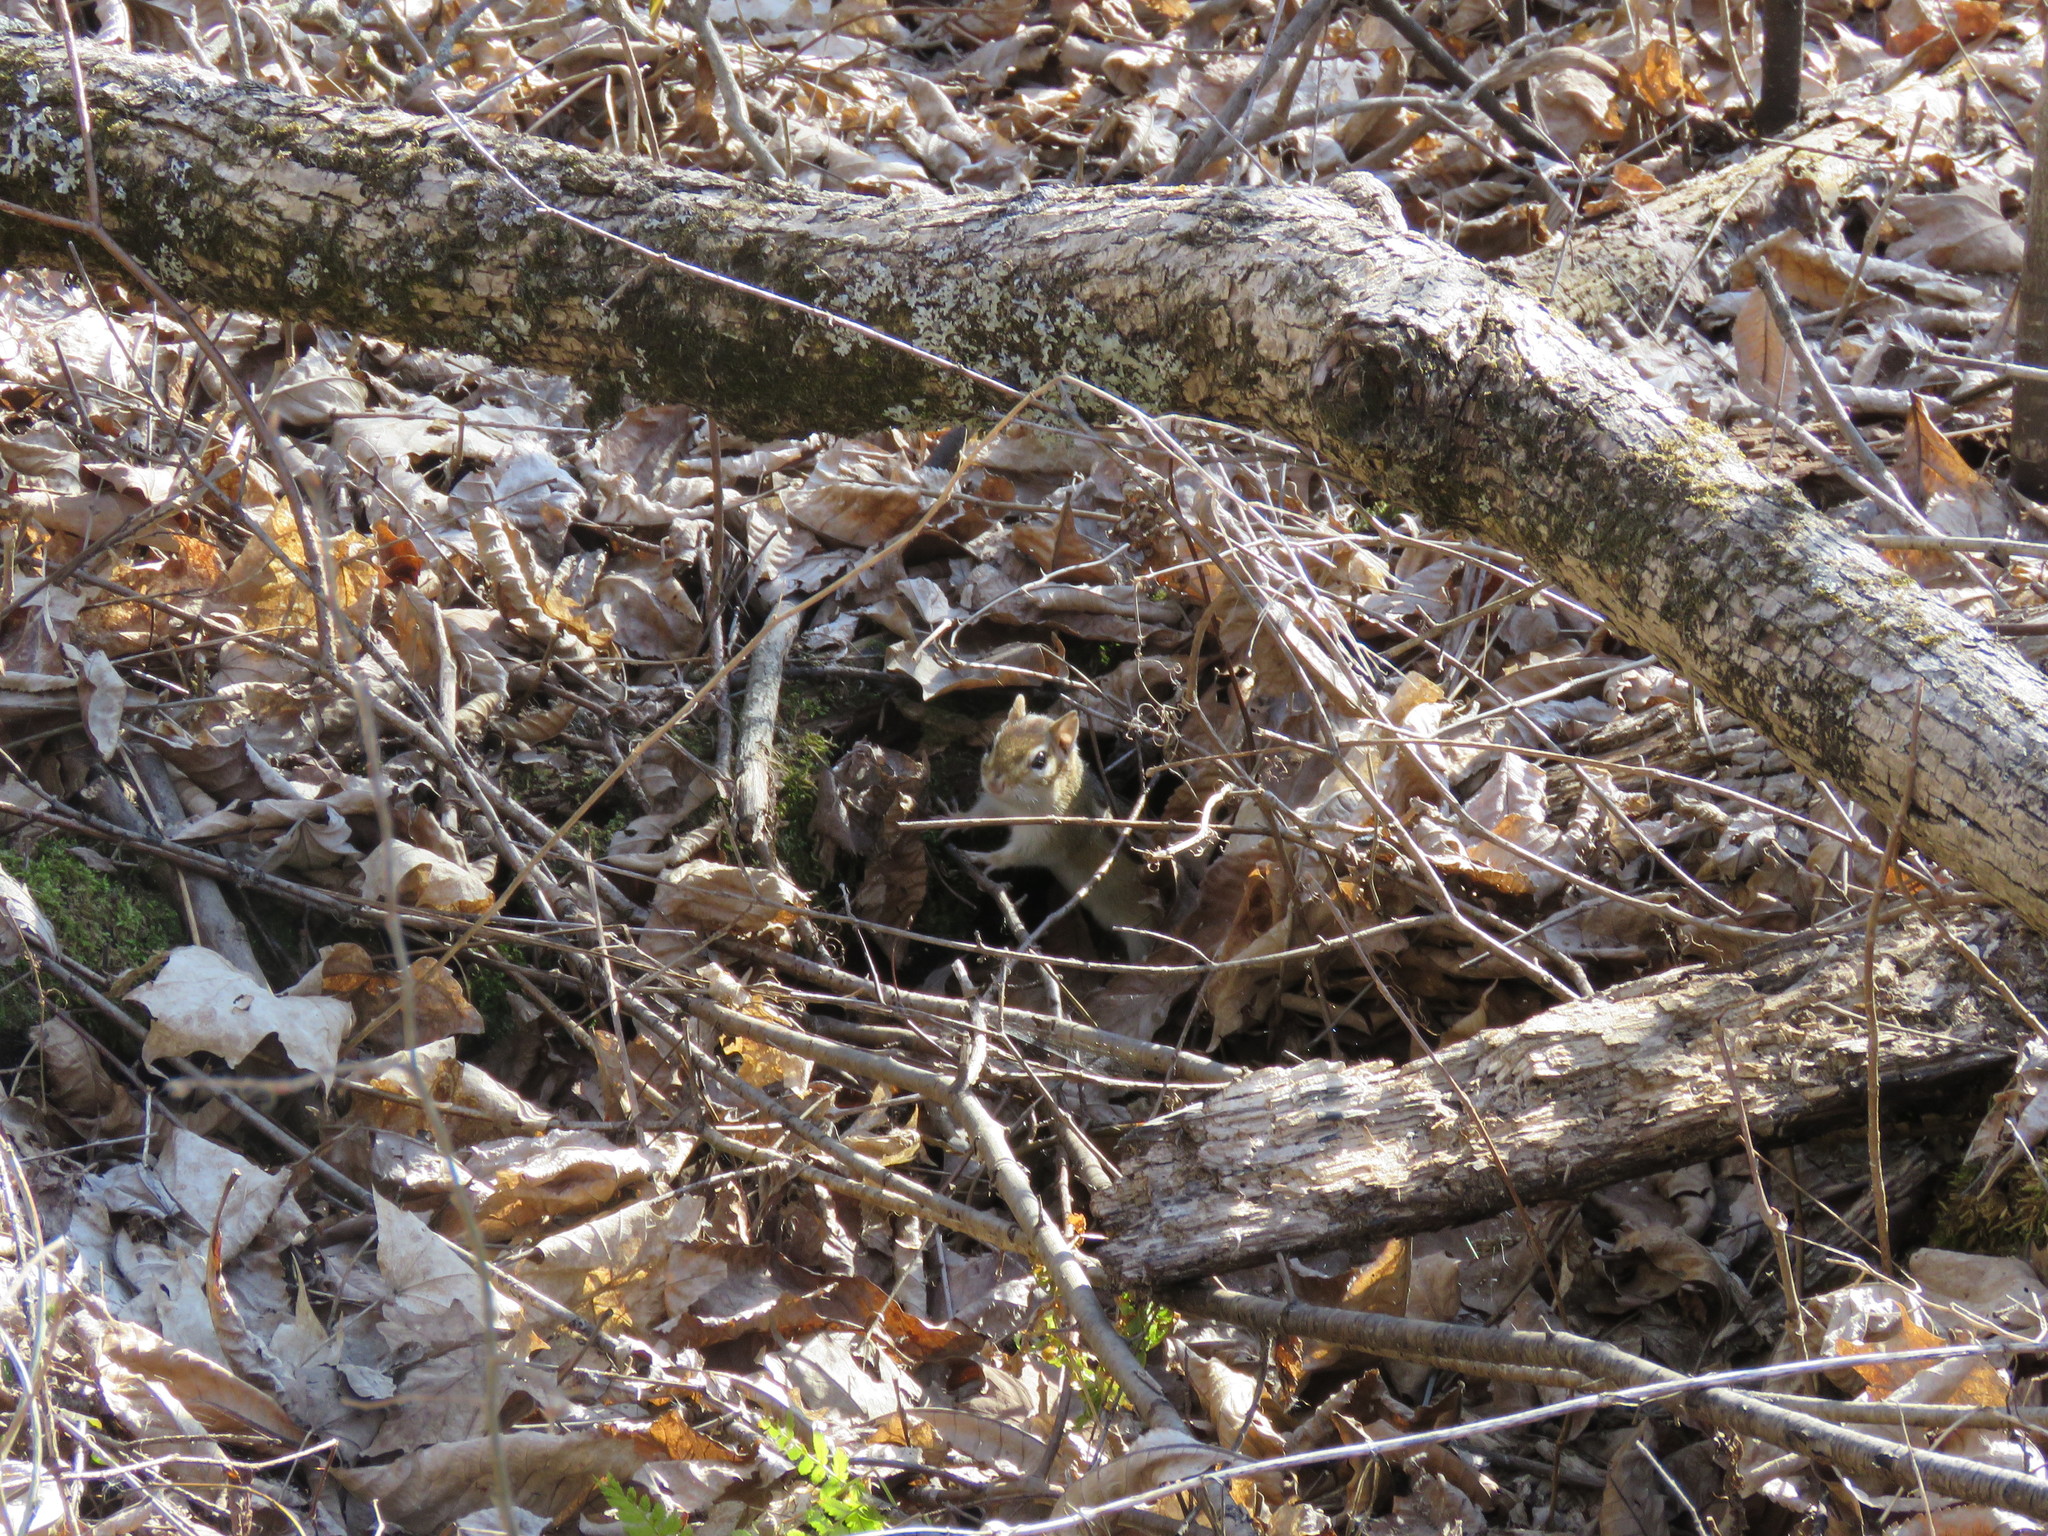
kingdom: Animalia
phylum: Chordata
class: Mammalia
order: Rodentia
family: Sciuridae
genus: Tamias
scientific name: Tamias striatus
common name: Eastern chipmunk
